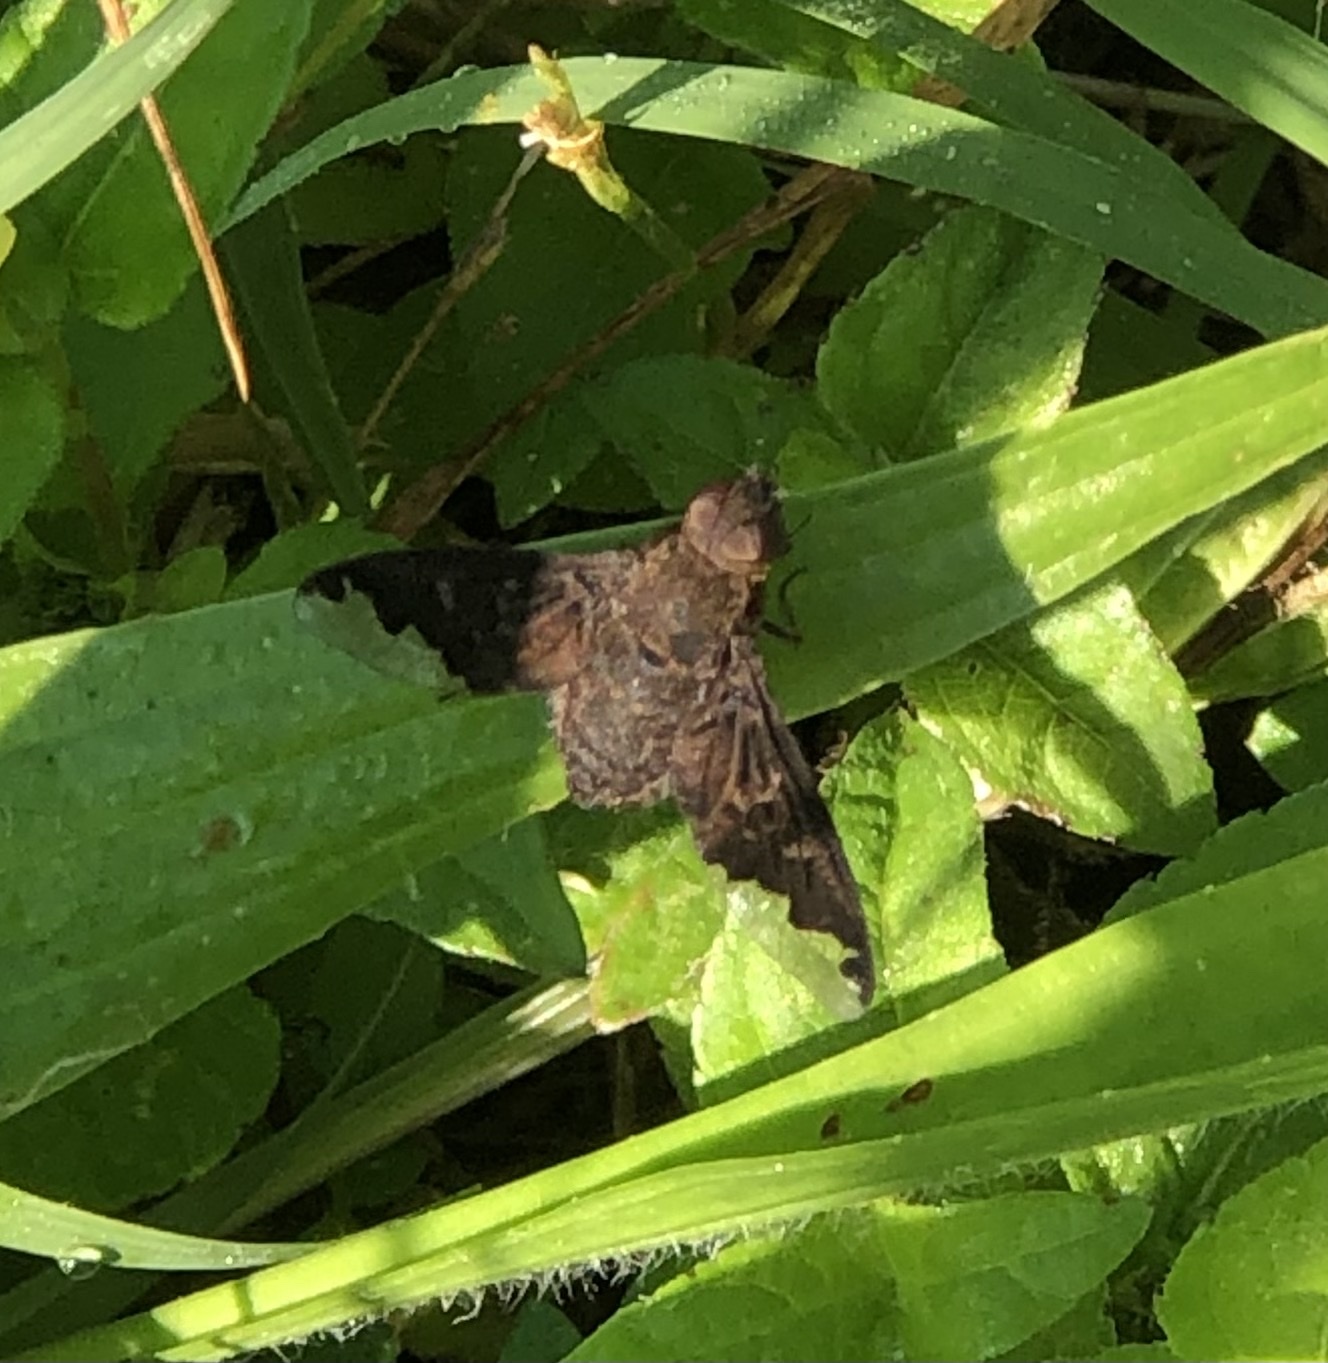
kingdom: Animalia
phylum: Arthropoda
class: Insecta
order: Diptera
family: Bombyliidae
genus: Hemipenthes
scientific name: Hemipenthes sinuosus
